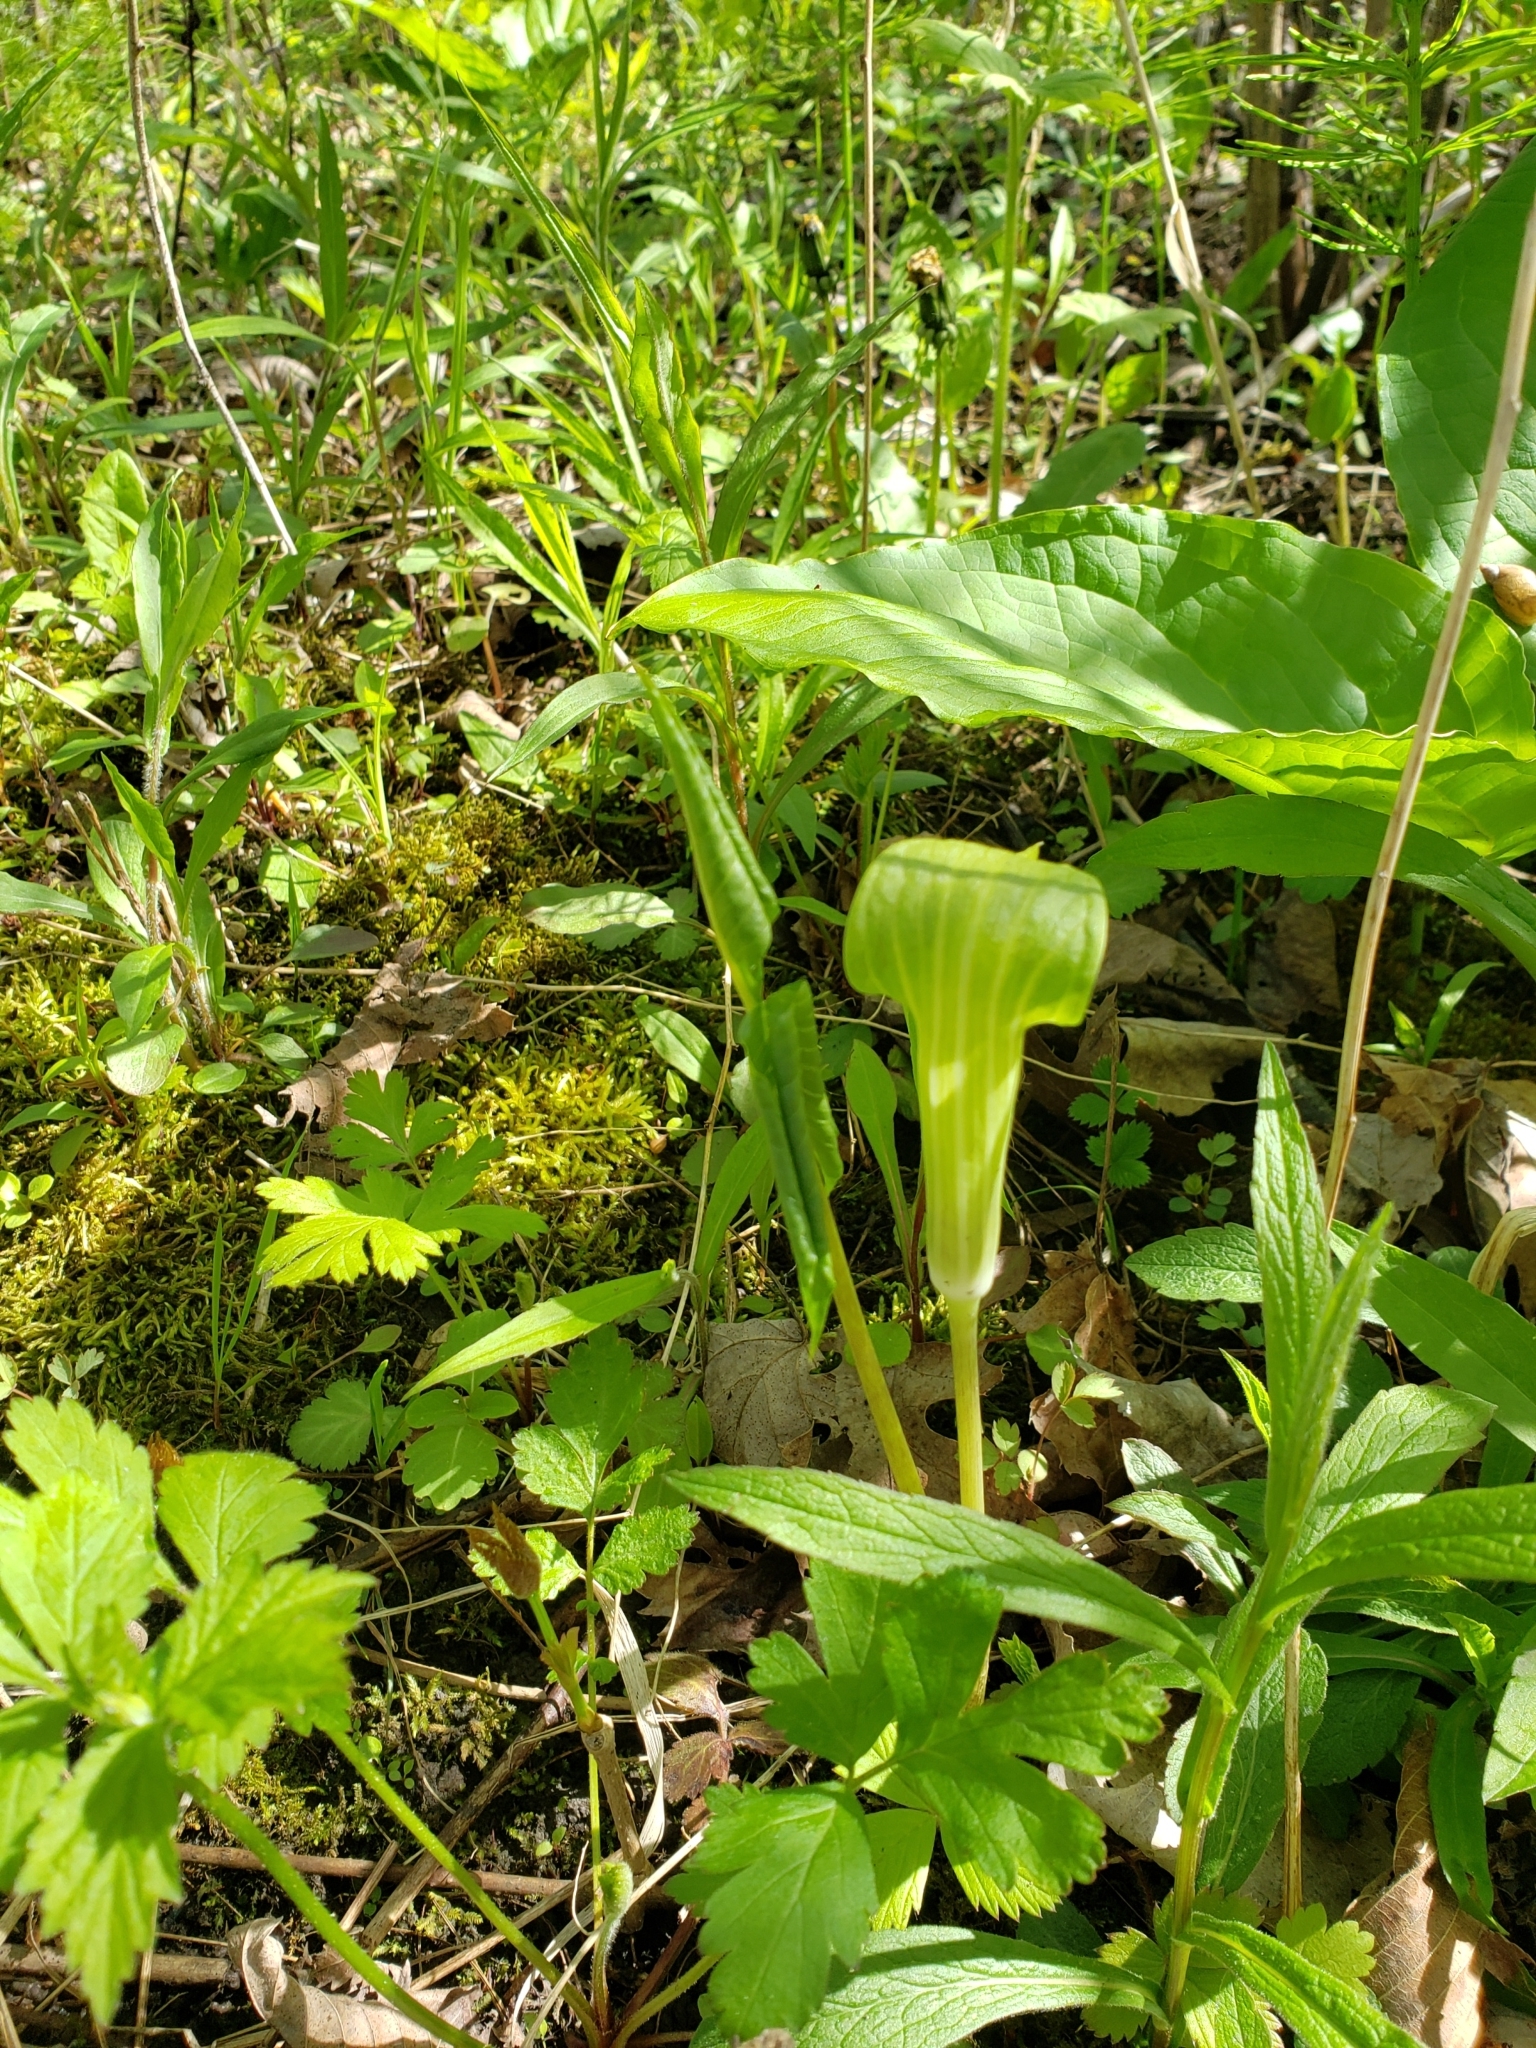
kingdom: Plantae
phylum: Tracheophyta
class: Liliopsida
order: Alismatales
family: Araceae
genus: Arisaema
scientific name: Arisaema triphyllum
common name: Jack-in-the-pulpit
